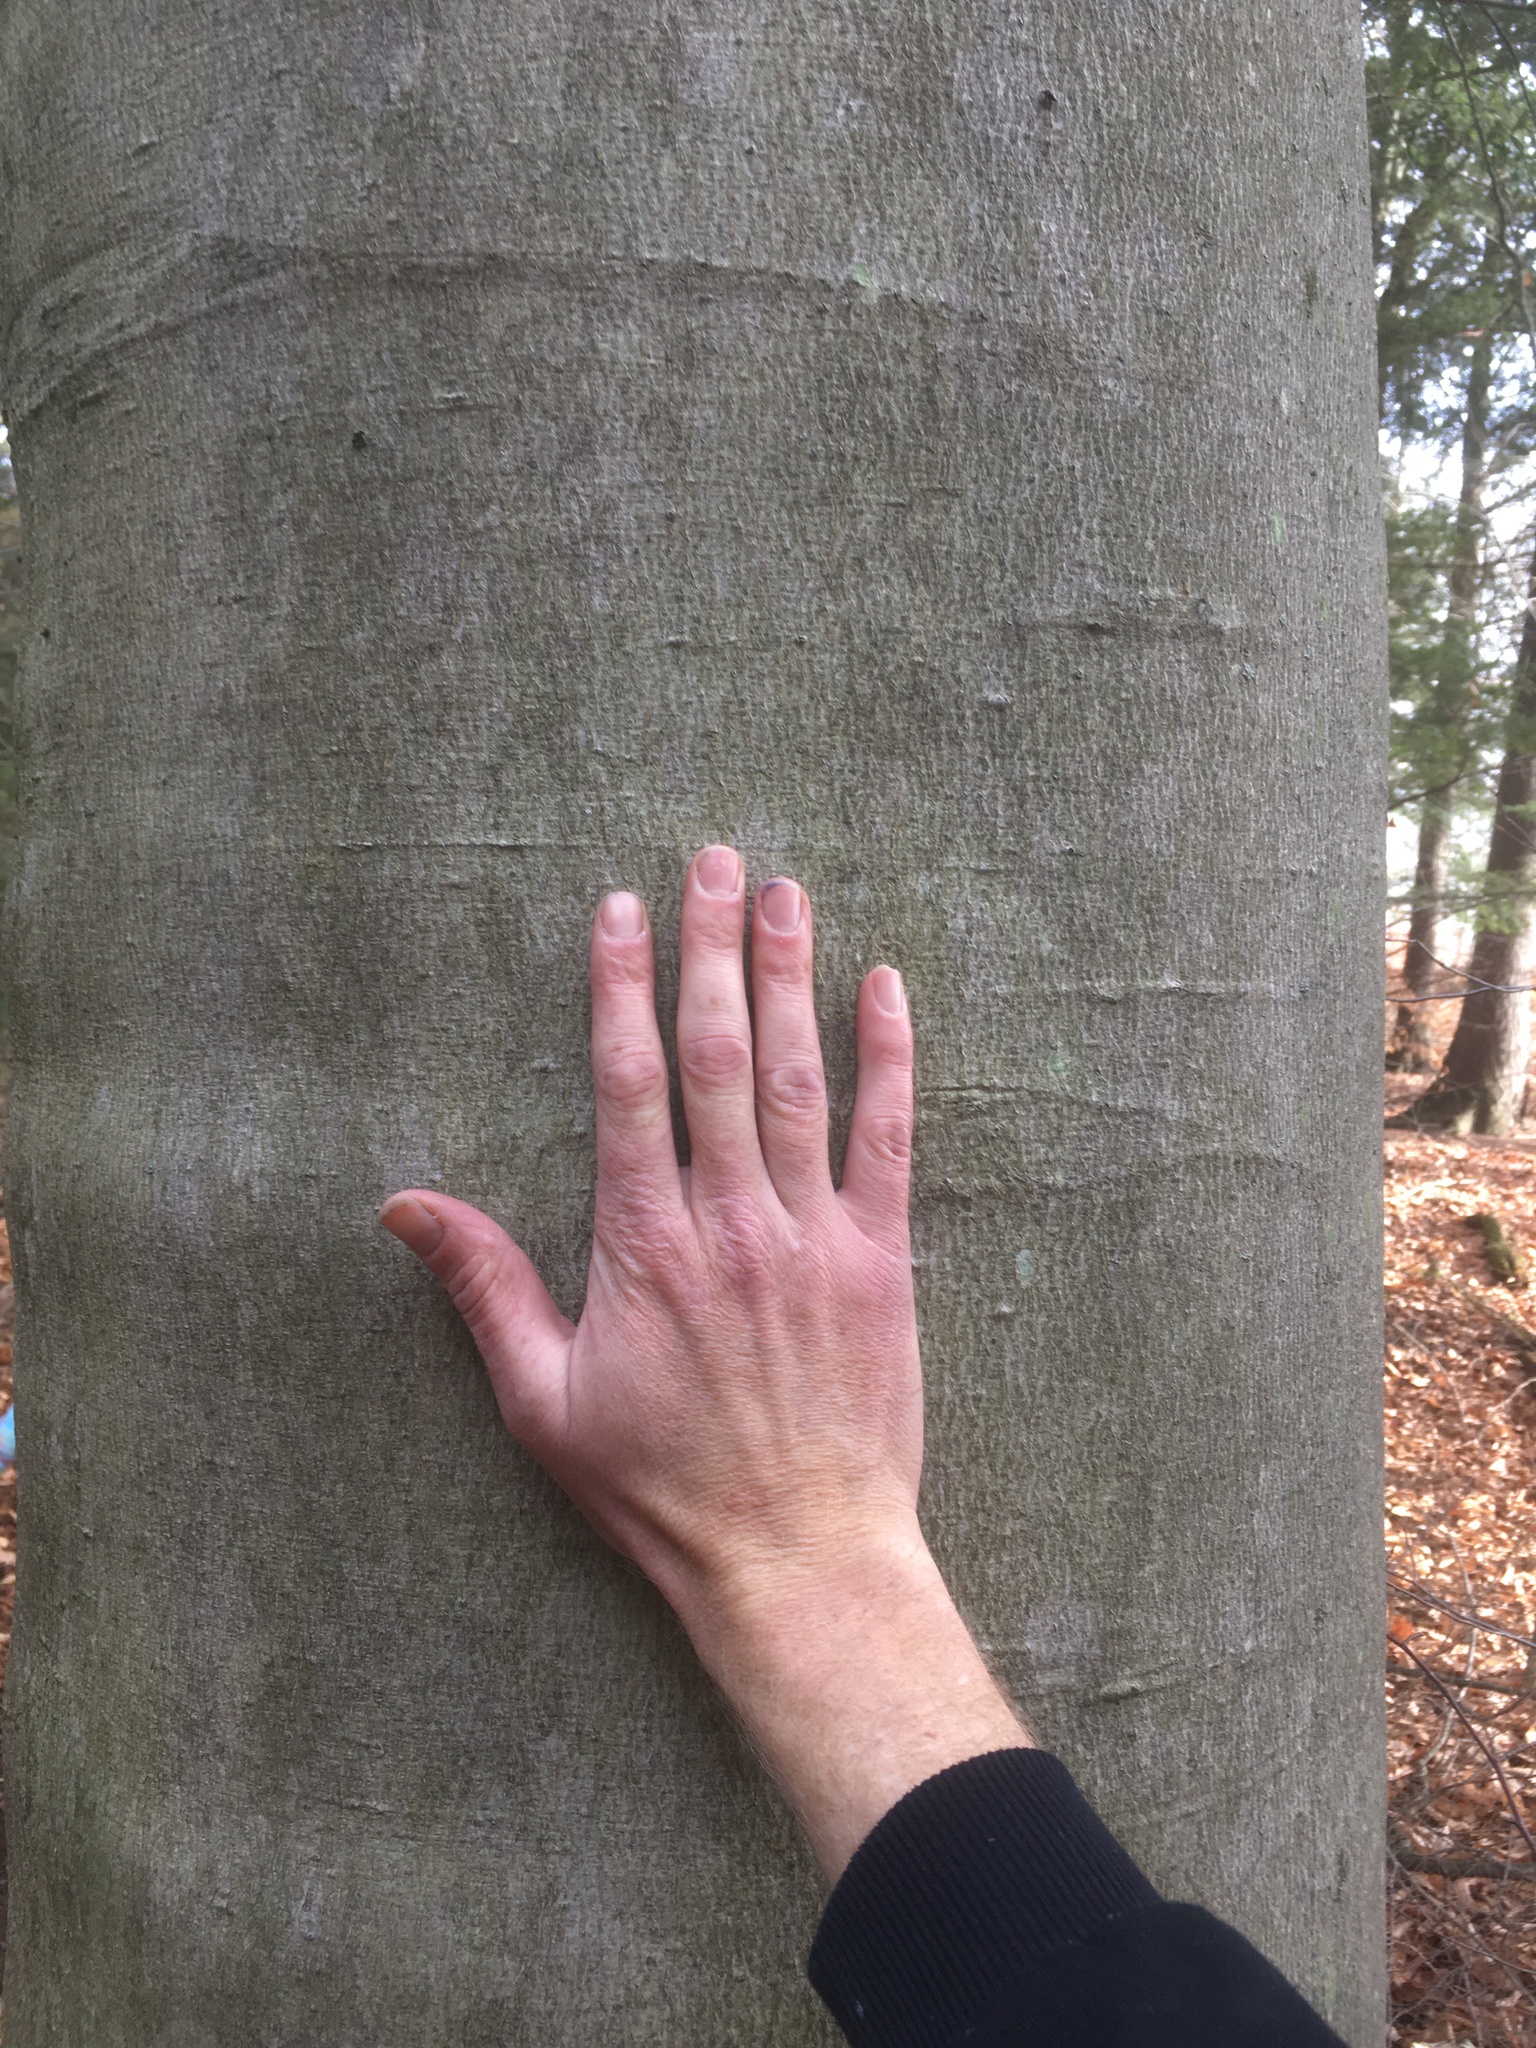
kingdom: Plantae
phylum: Tracheophyta
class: Magnoliopsida
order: Fagales
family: Fagaceae
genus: Fagus
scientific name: Fagus grandifolia
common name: American beech
